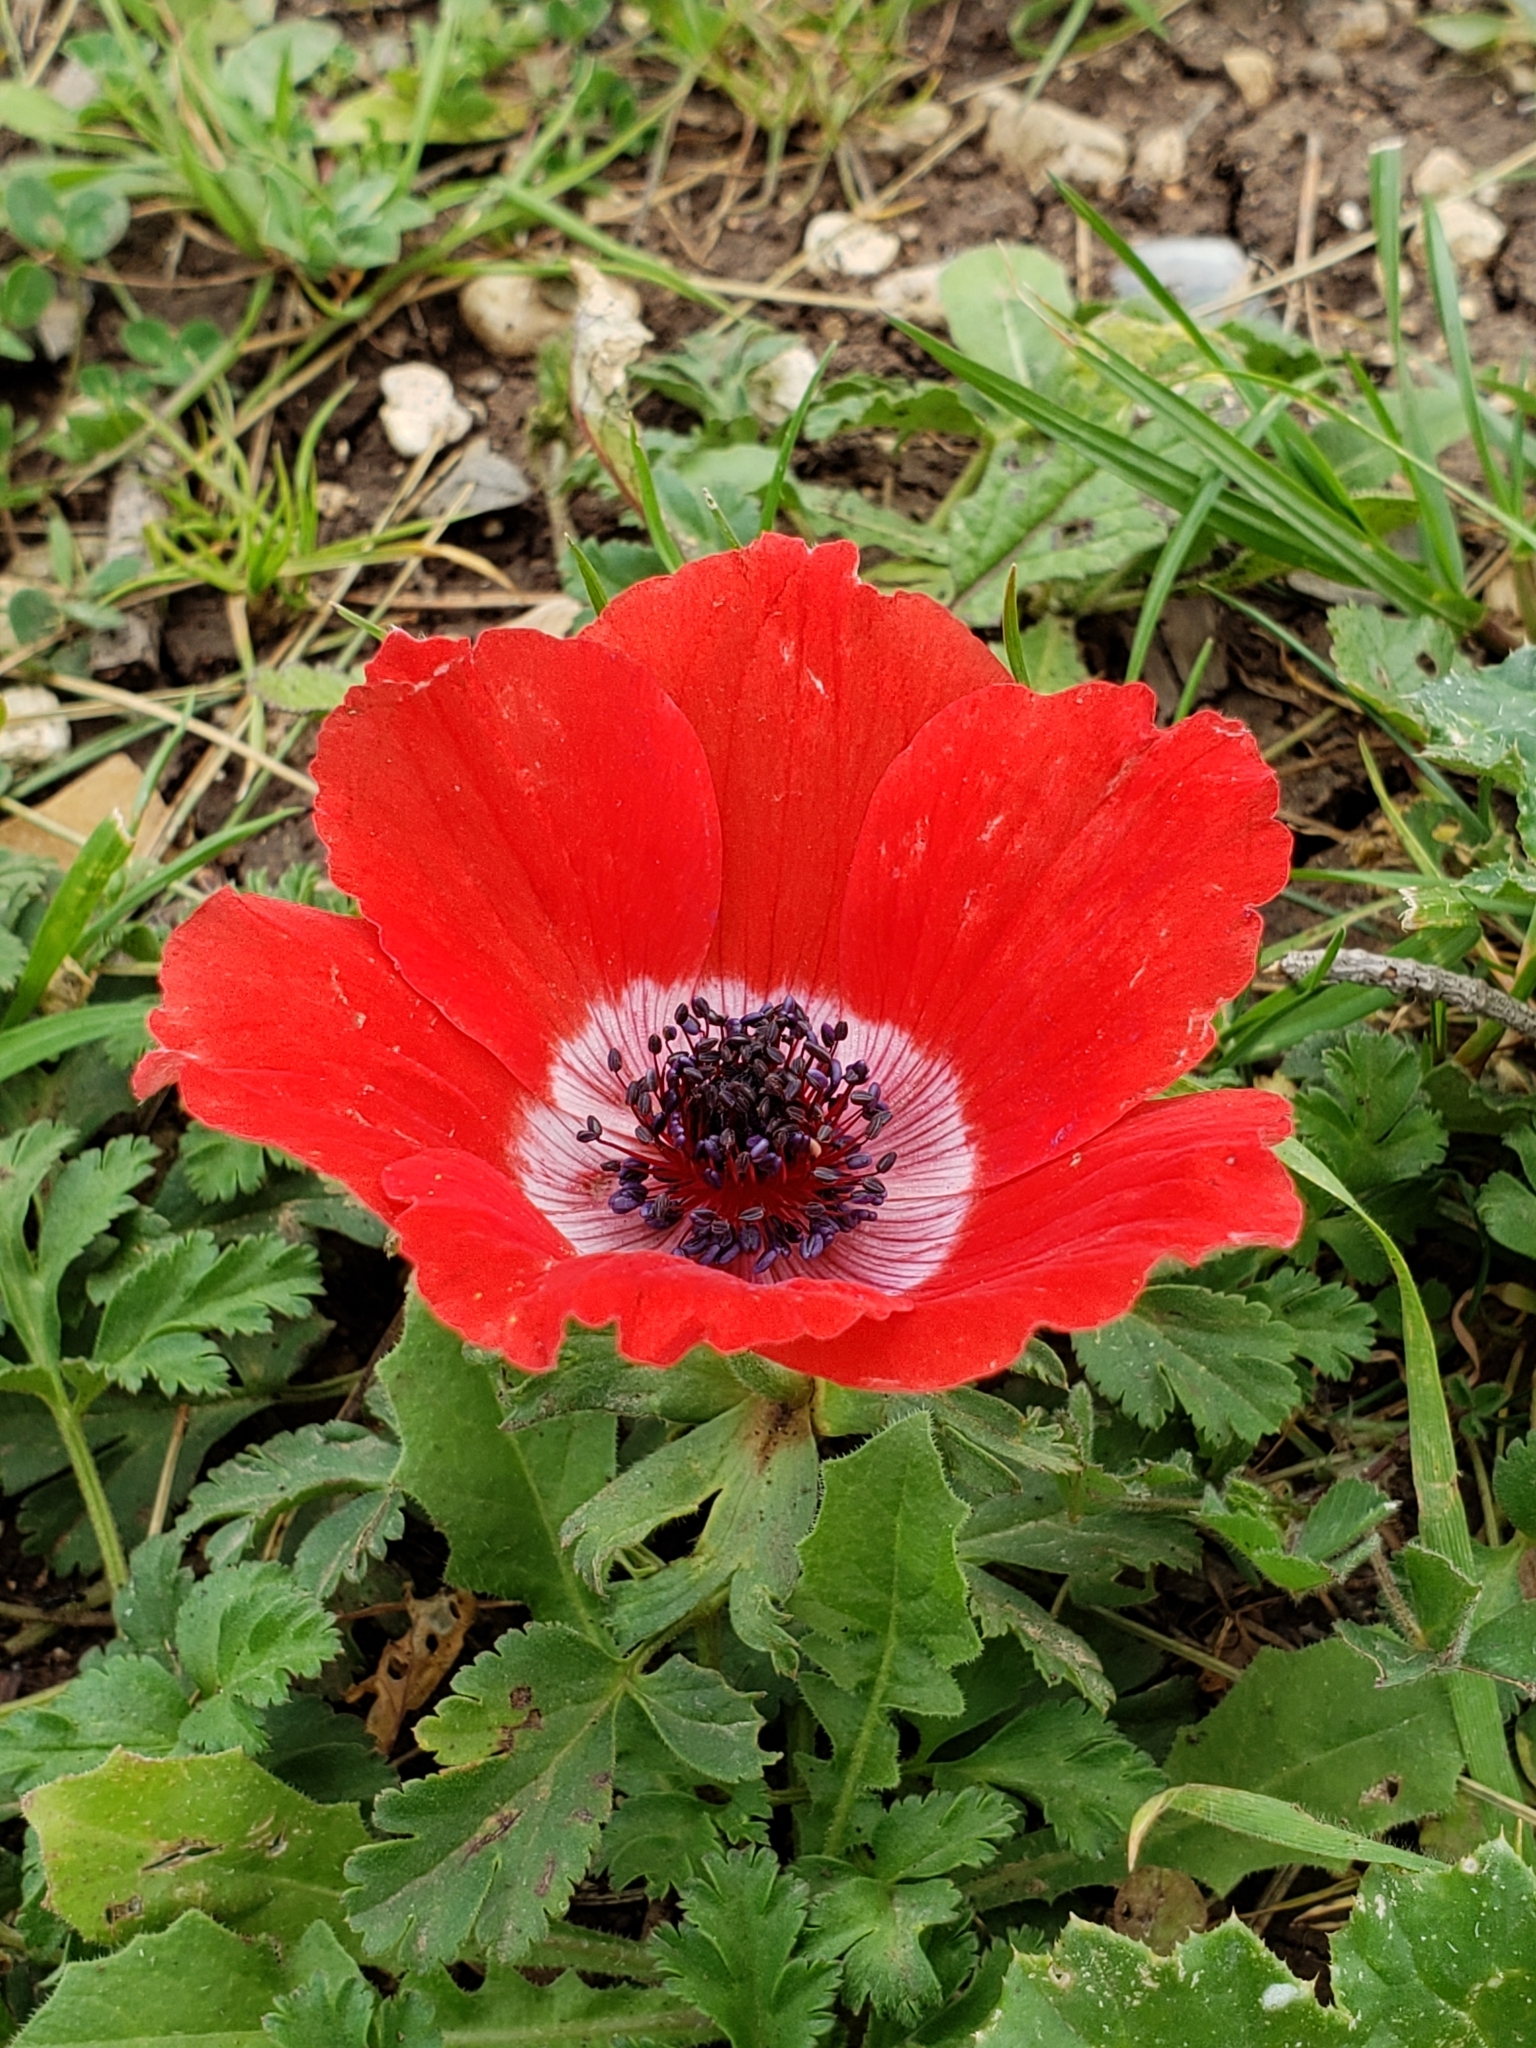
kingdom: Plantae
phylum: Tracheophyta
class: Magnoliopsida
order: Ranunculales
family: Ranunculaceae
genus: Anemone
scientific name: Anemone coronaria
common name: Poppy anemone
